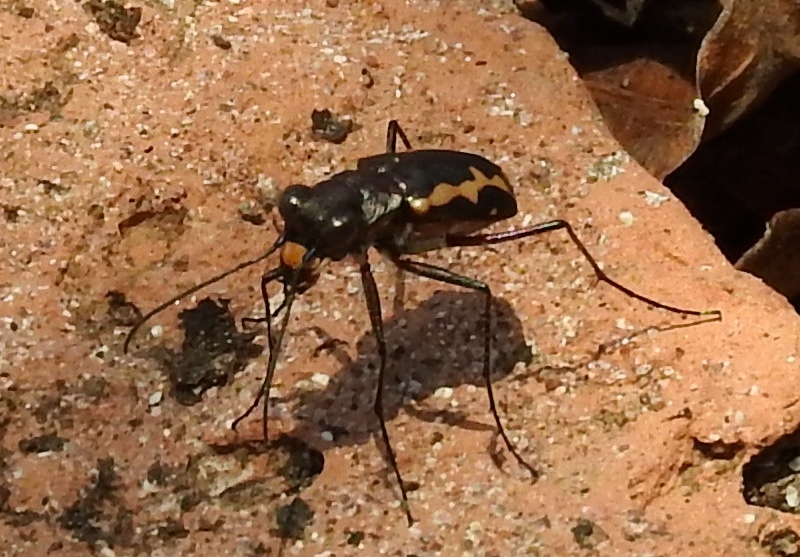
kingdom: Animalia
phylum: Arthropoda
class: Insecta
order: Coleoptera
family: Carabidae
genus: Cicindela
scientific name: Cicindela hydrophoba
